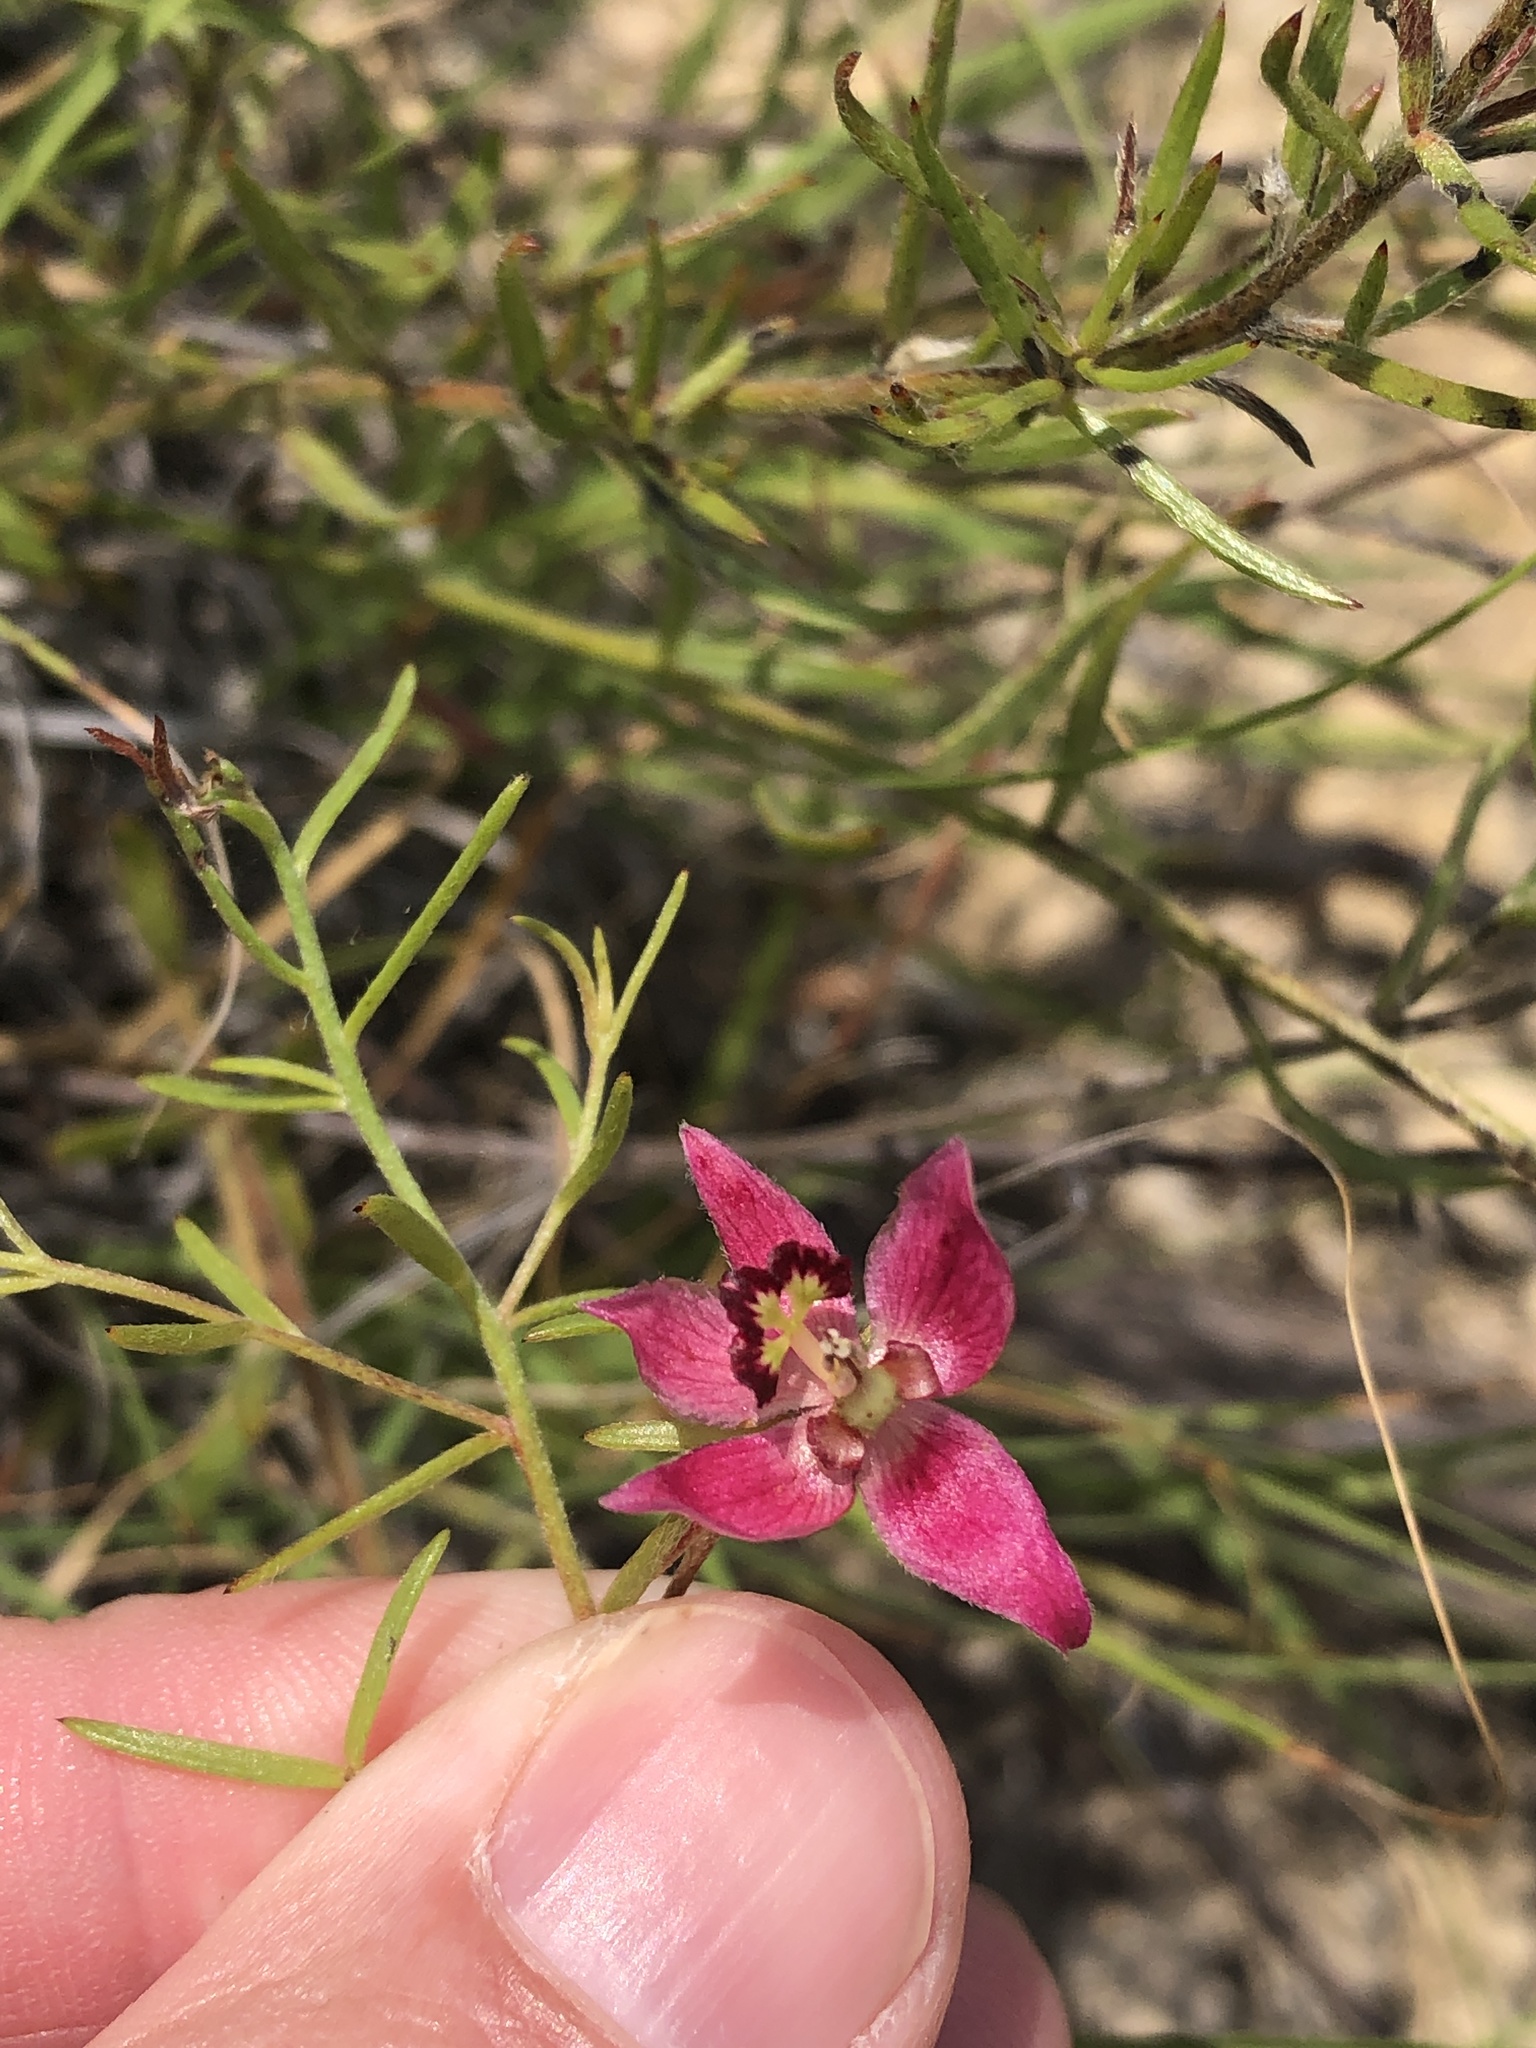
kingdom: Plantae
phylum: Tracheophyta
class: Magnoliopsida
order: Zygophyllales
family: Krameriaceae
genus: Krameria
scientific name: Krameria lanceolata
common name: Ratany
